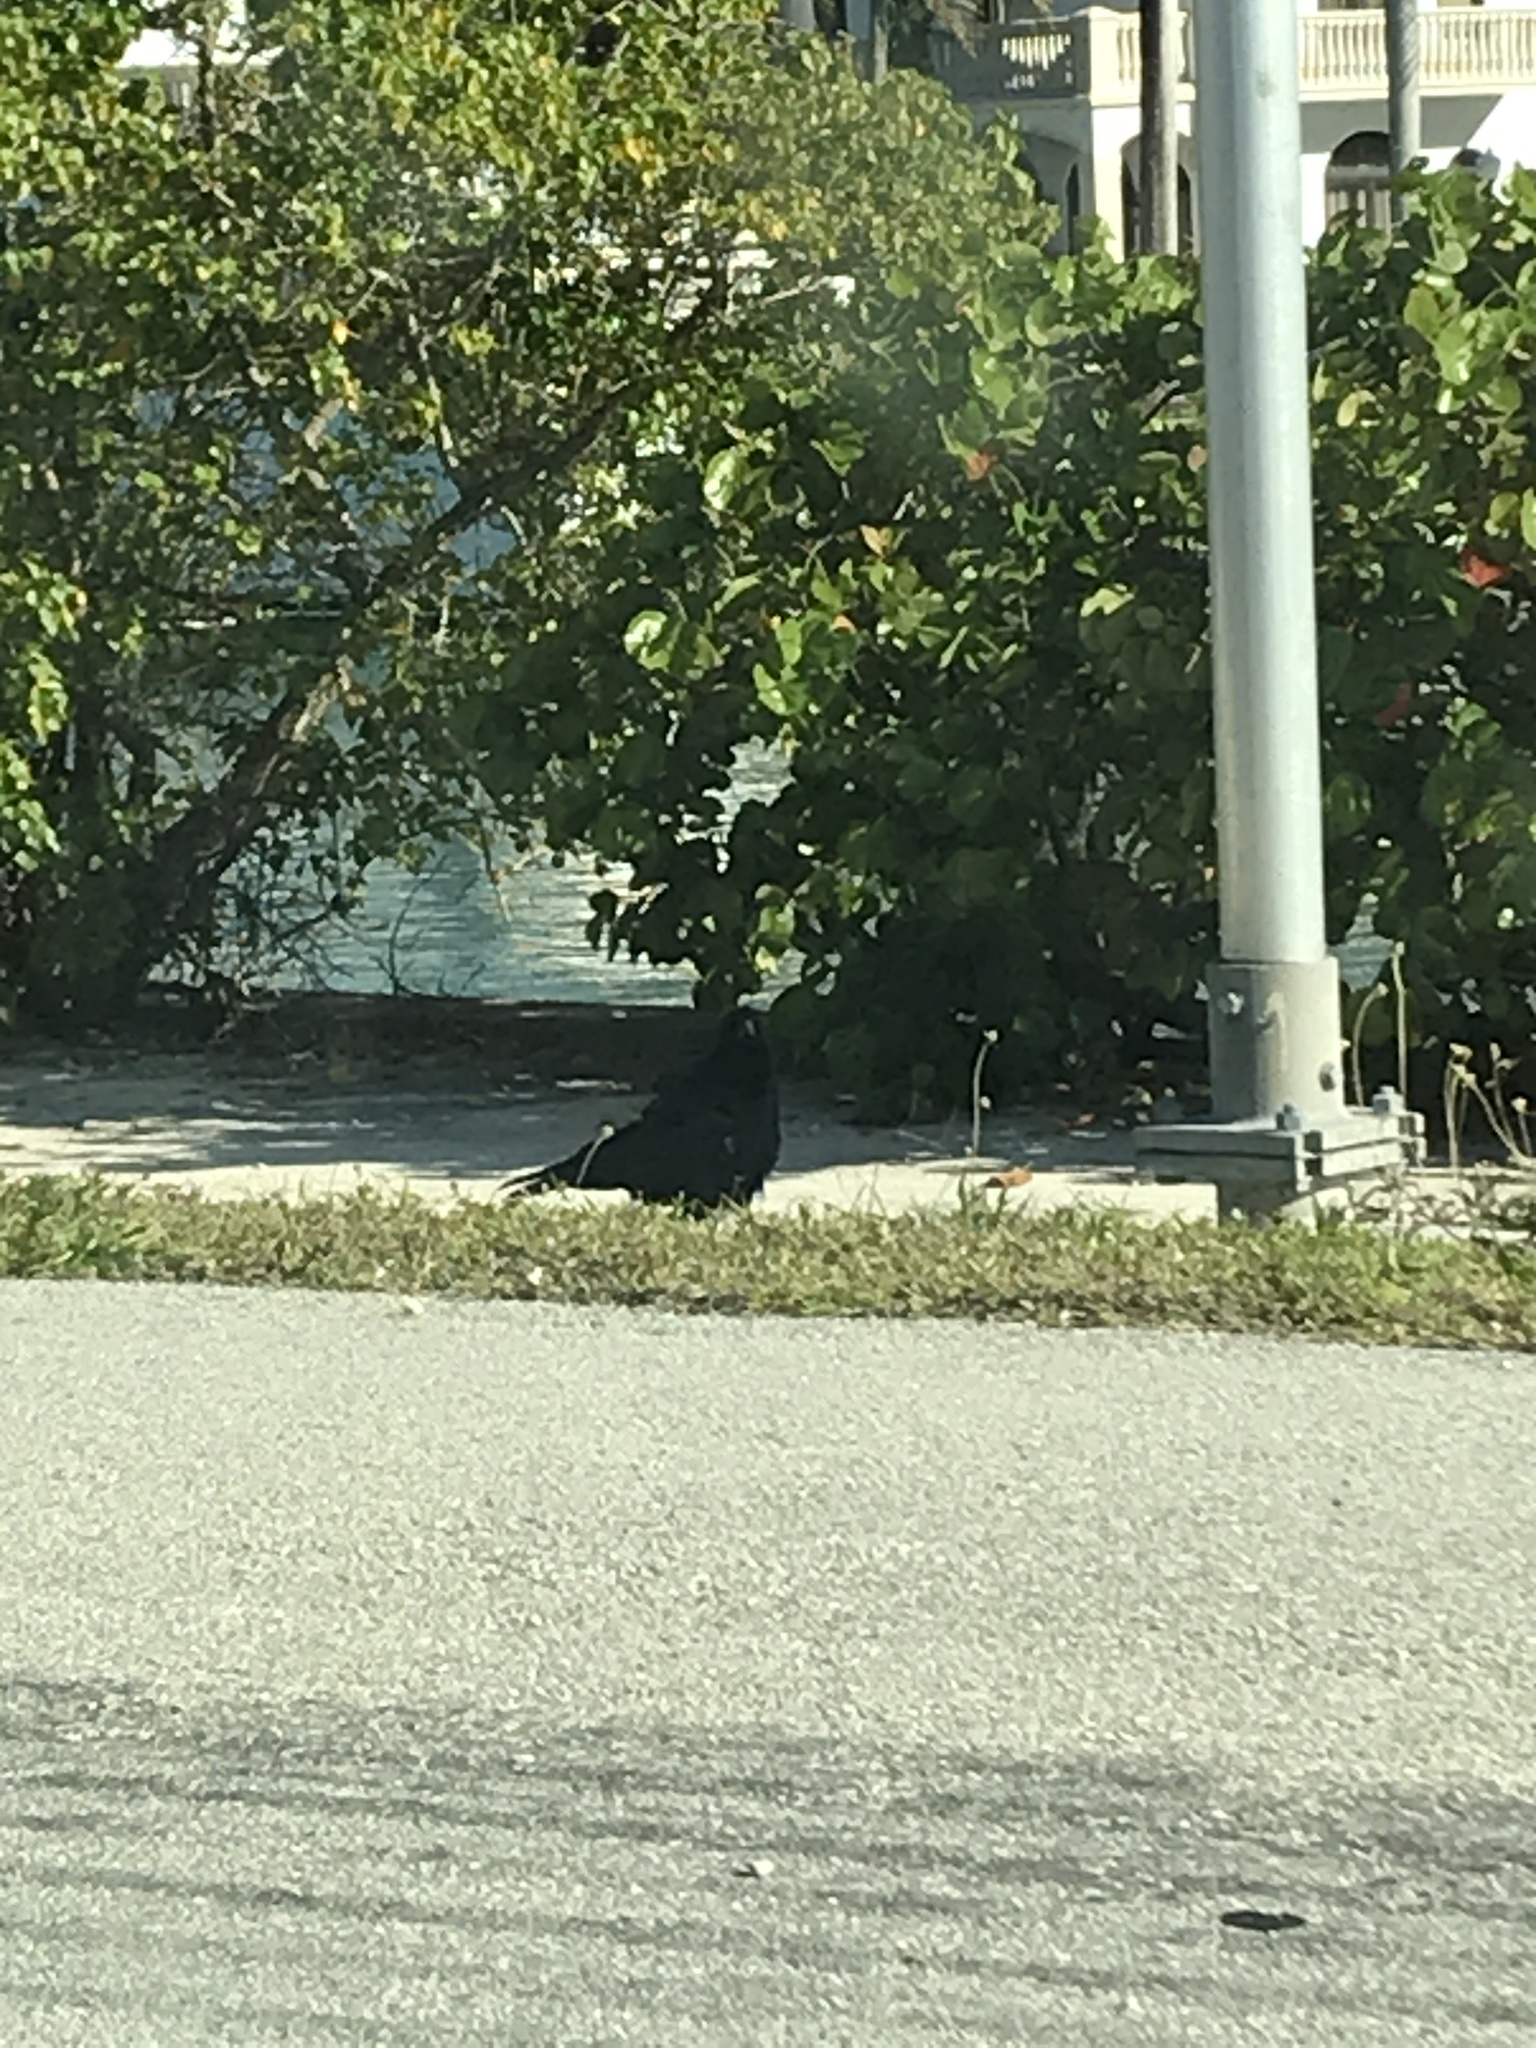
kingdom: Animalia
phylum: Chordata
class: Aves
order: Passeriformes
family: Corvidae
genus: Corvus
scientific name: Corvus brachyrhynchos
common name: American crow
